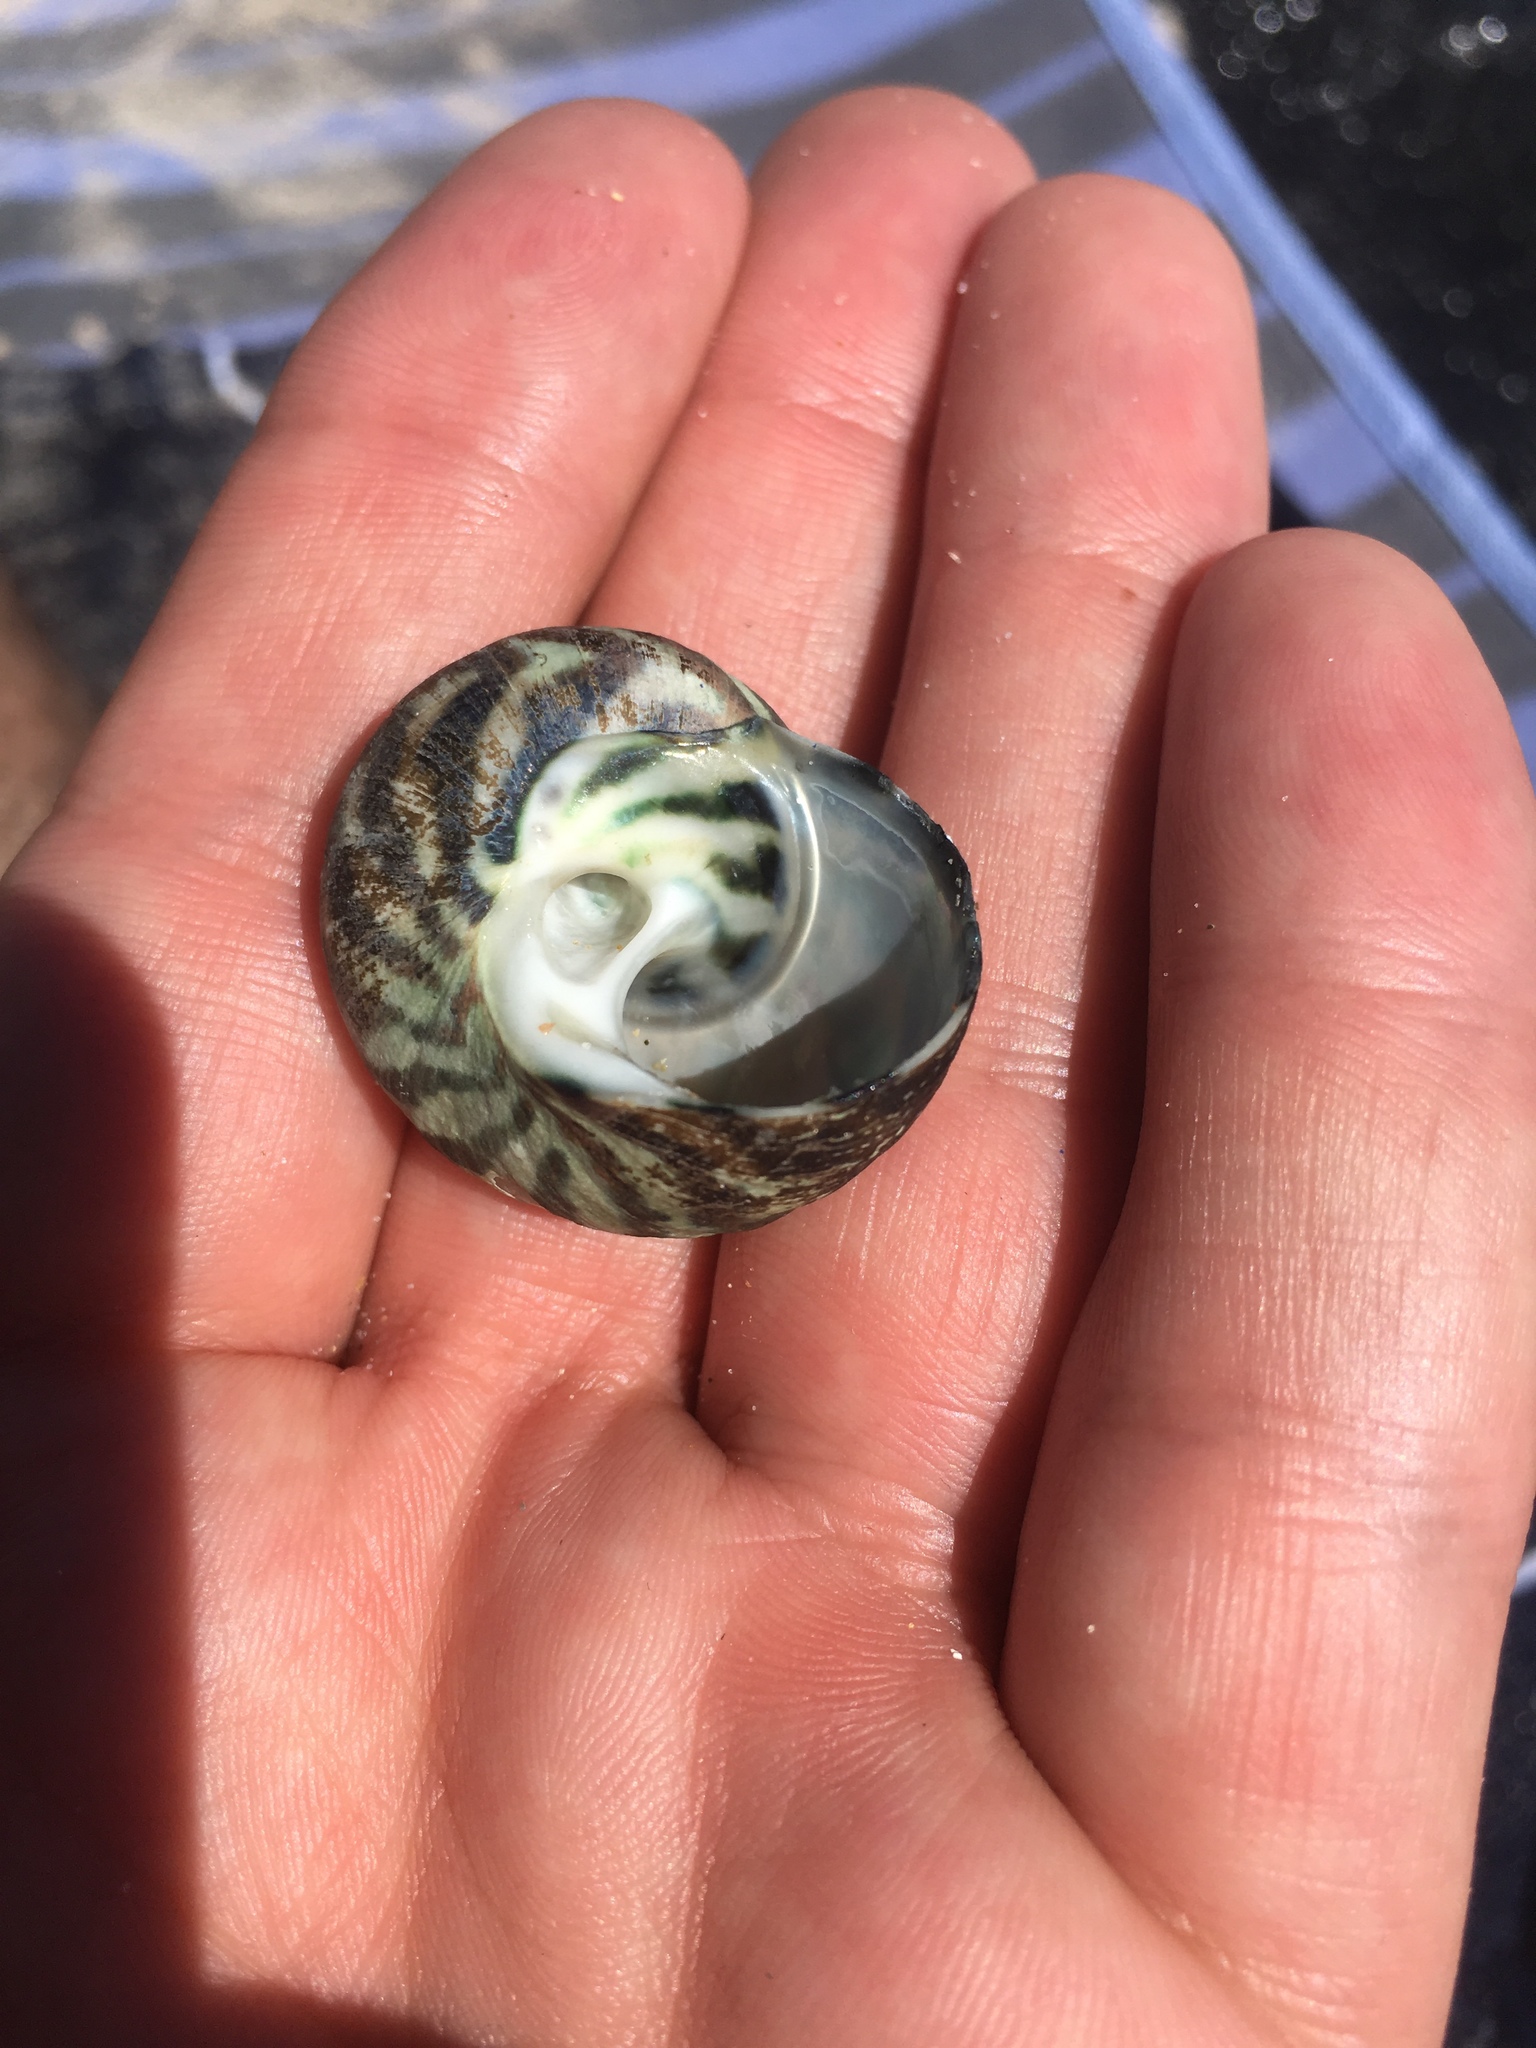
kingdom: Animalia
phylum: Mollusca
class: Gastropoda
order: Trochida
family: Turbinidae
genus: Lunella
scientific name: Lunella undulata
